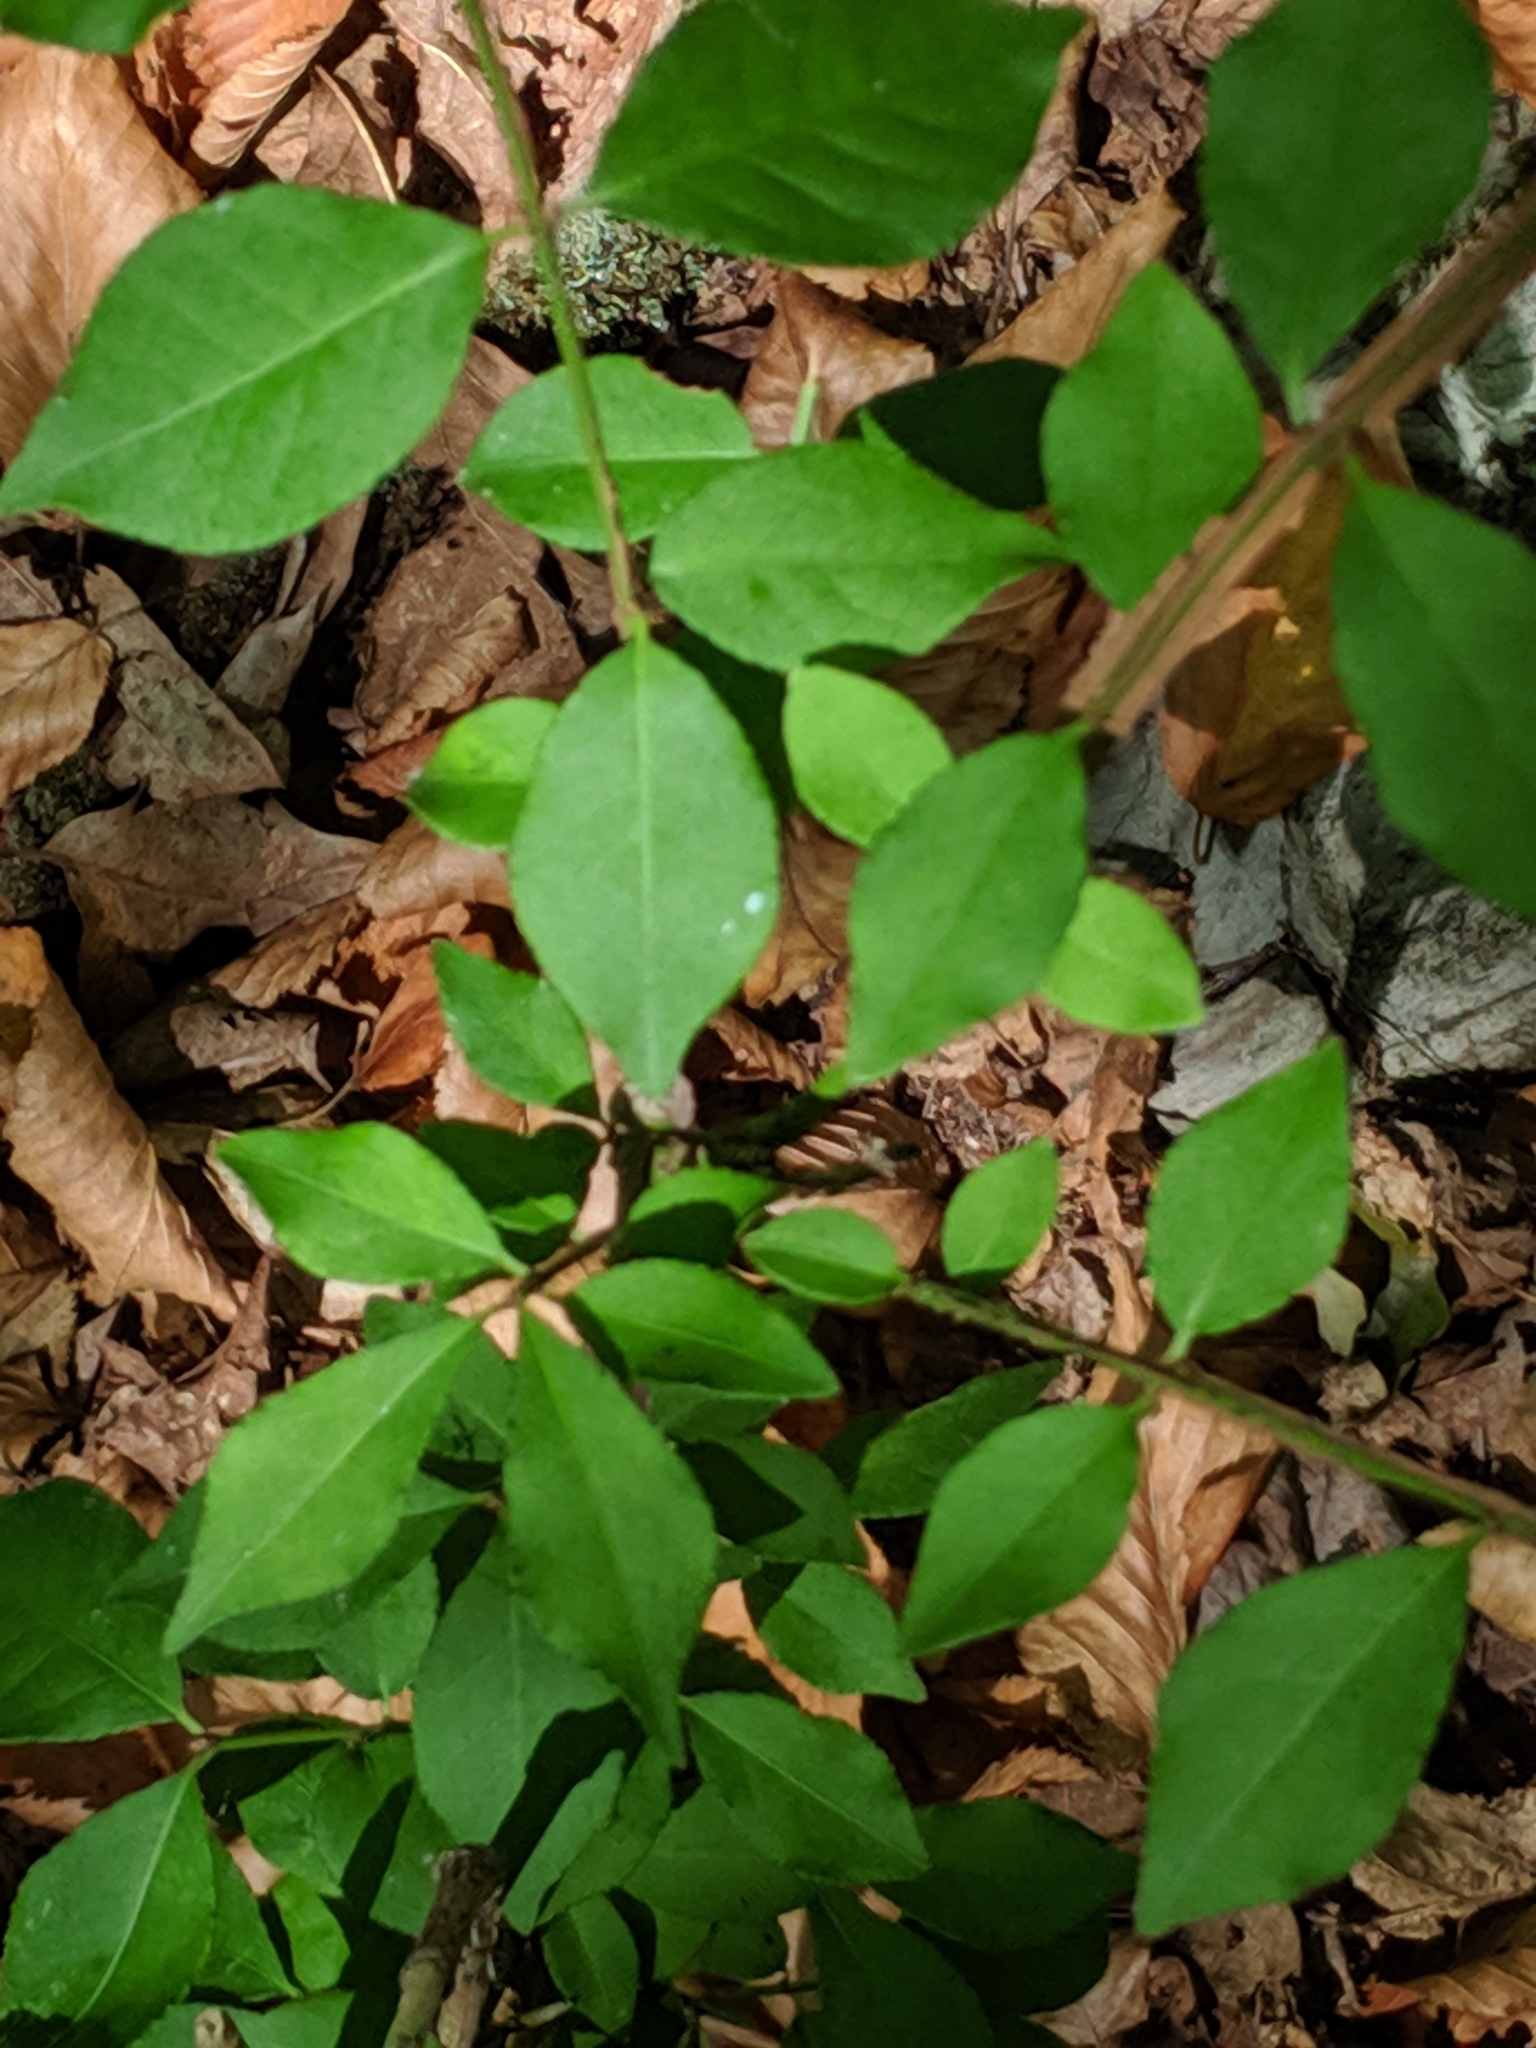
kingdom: Plantae
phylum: Tracheophyta
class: Magnoliopsida
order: Celastrales
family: Celastraceae
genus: Euonymus
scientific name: Euonymus alatus
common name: Winged euonymus
